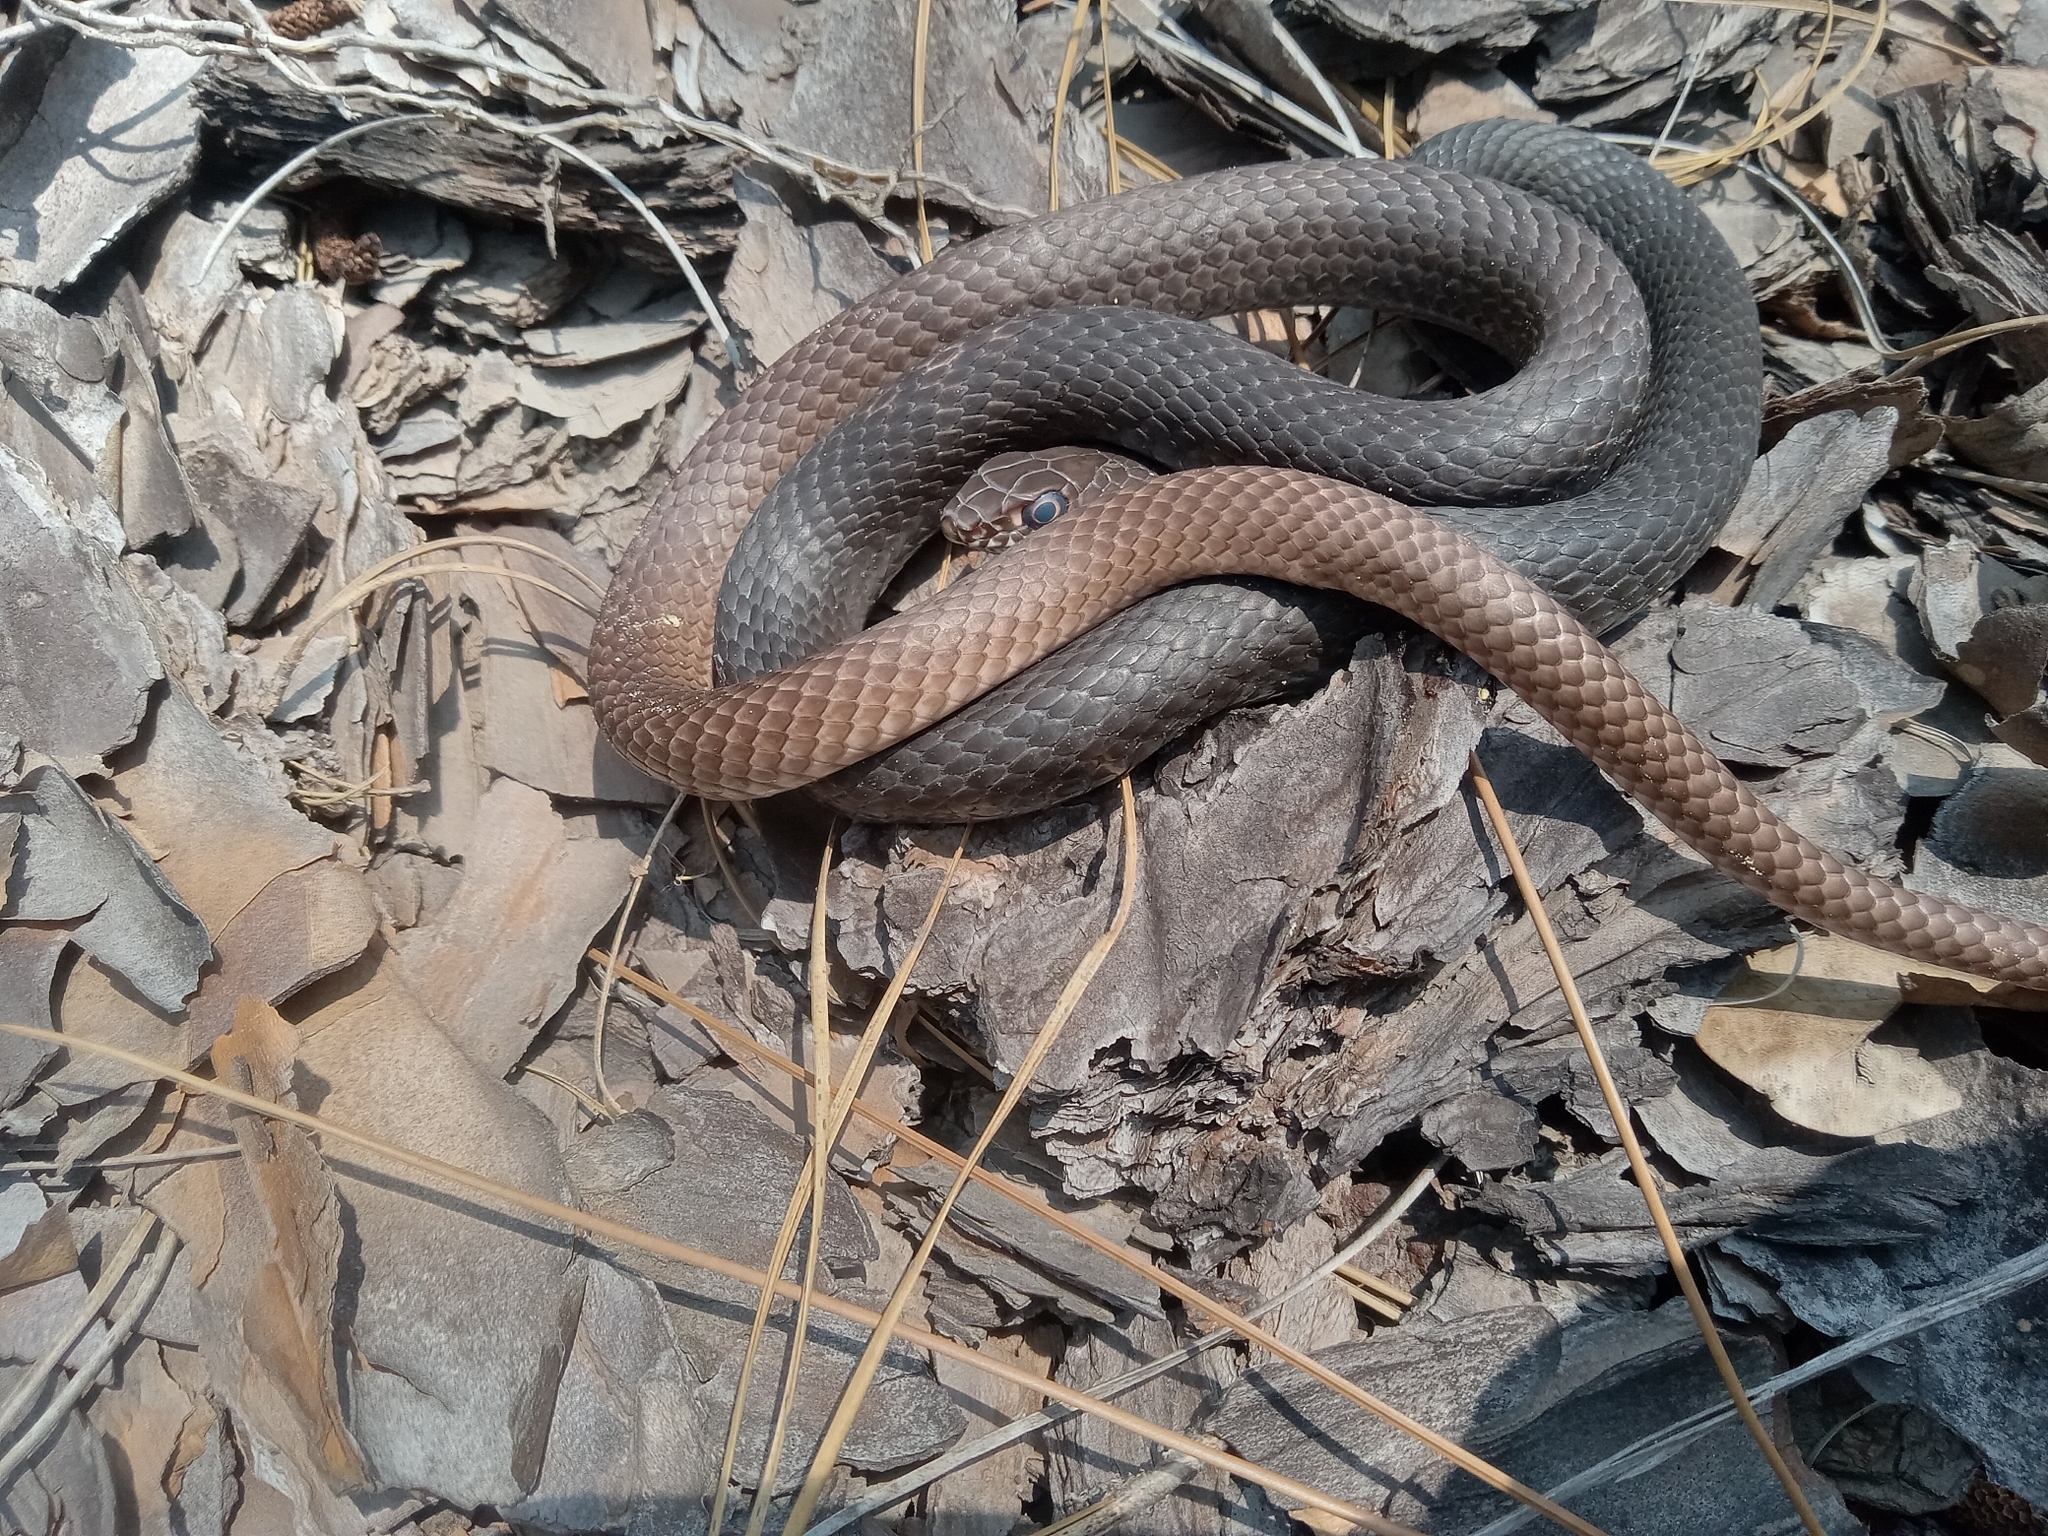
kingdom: Animalia
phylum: Chordata
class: Squamata
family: Colubridae
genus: Masticophis
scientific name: Masticophis flagellum
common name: Coachwhip
